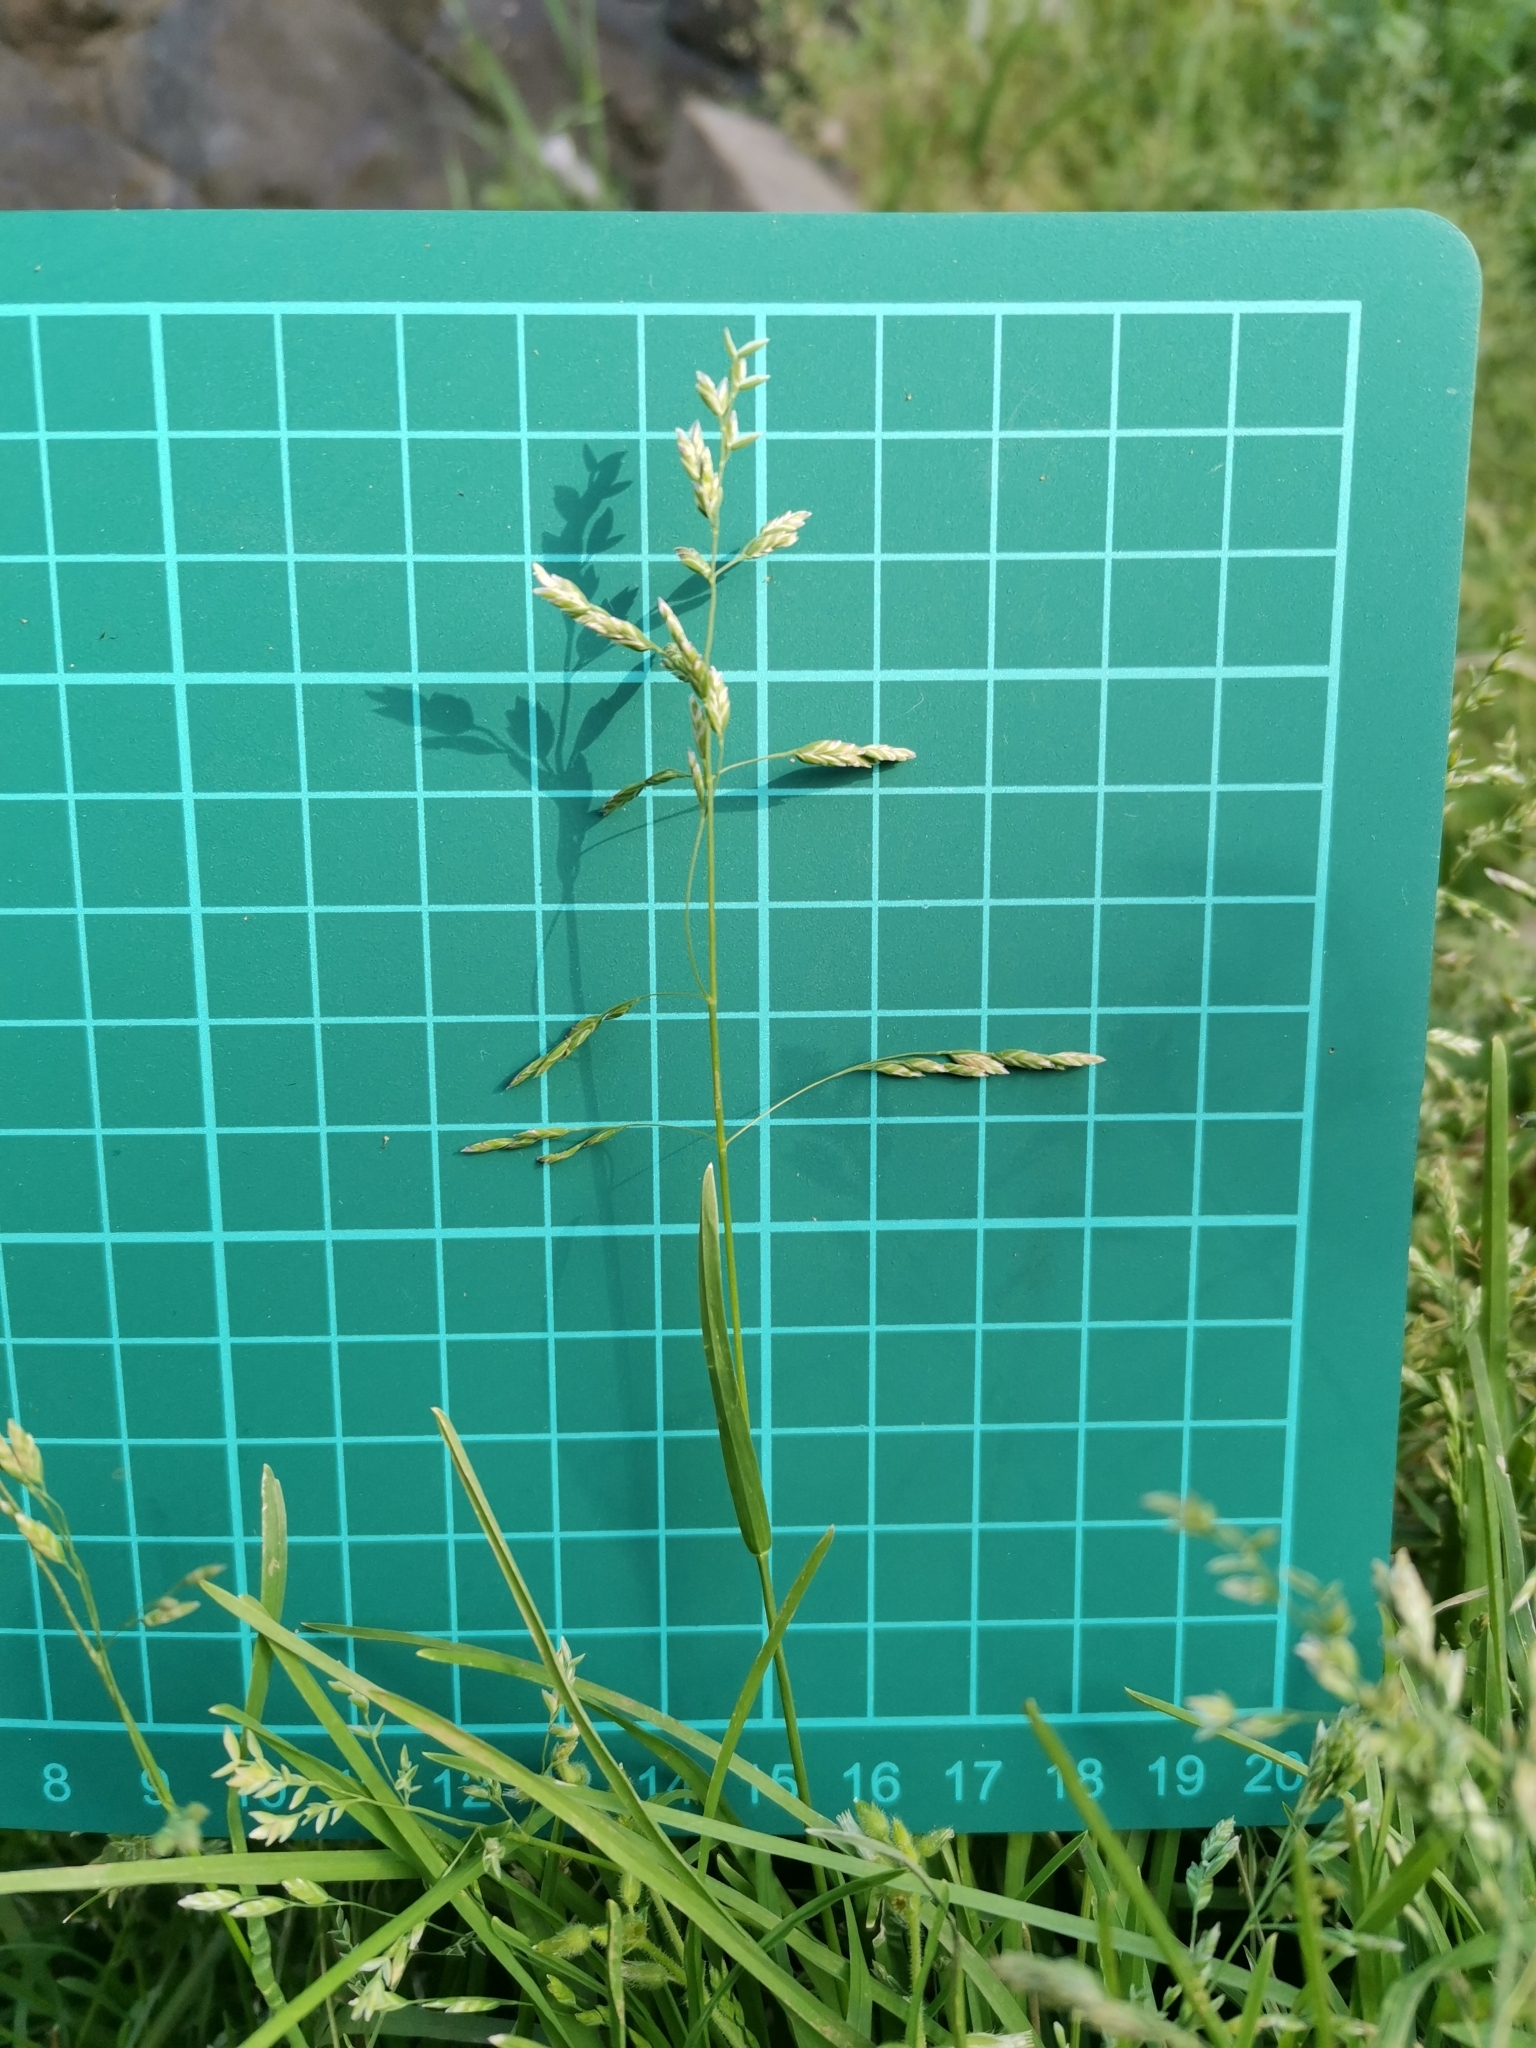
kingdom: Plantae
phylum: Tracheophyta
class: Liliopsida
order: Poales
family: Poaceae
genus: Poa
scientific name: Poa annua
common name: Annual bluegrass
